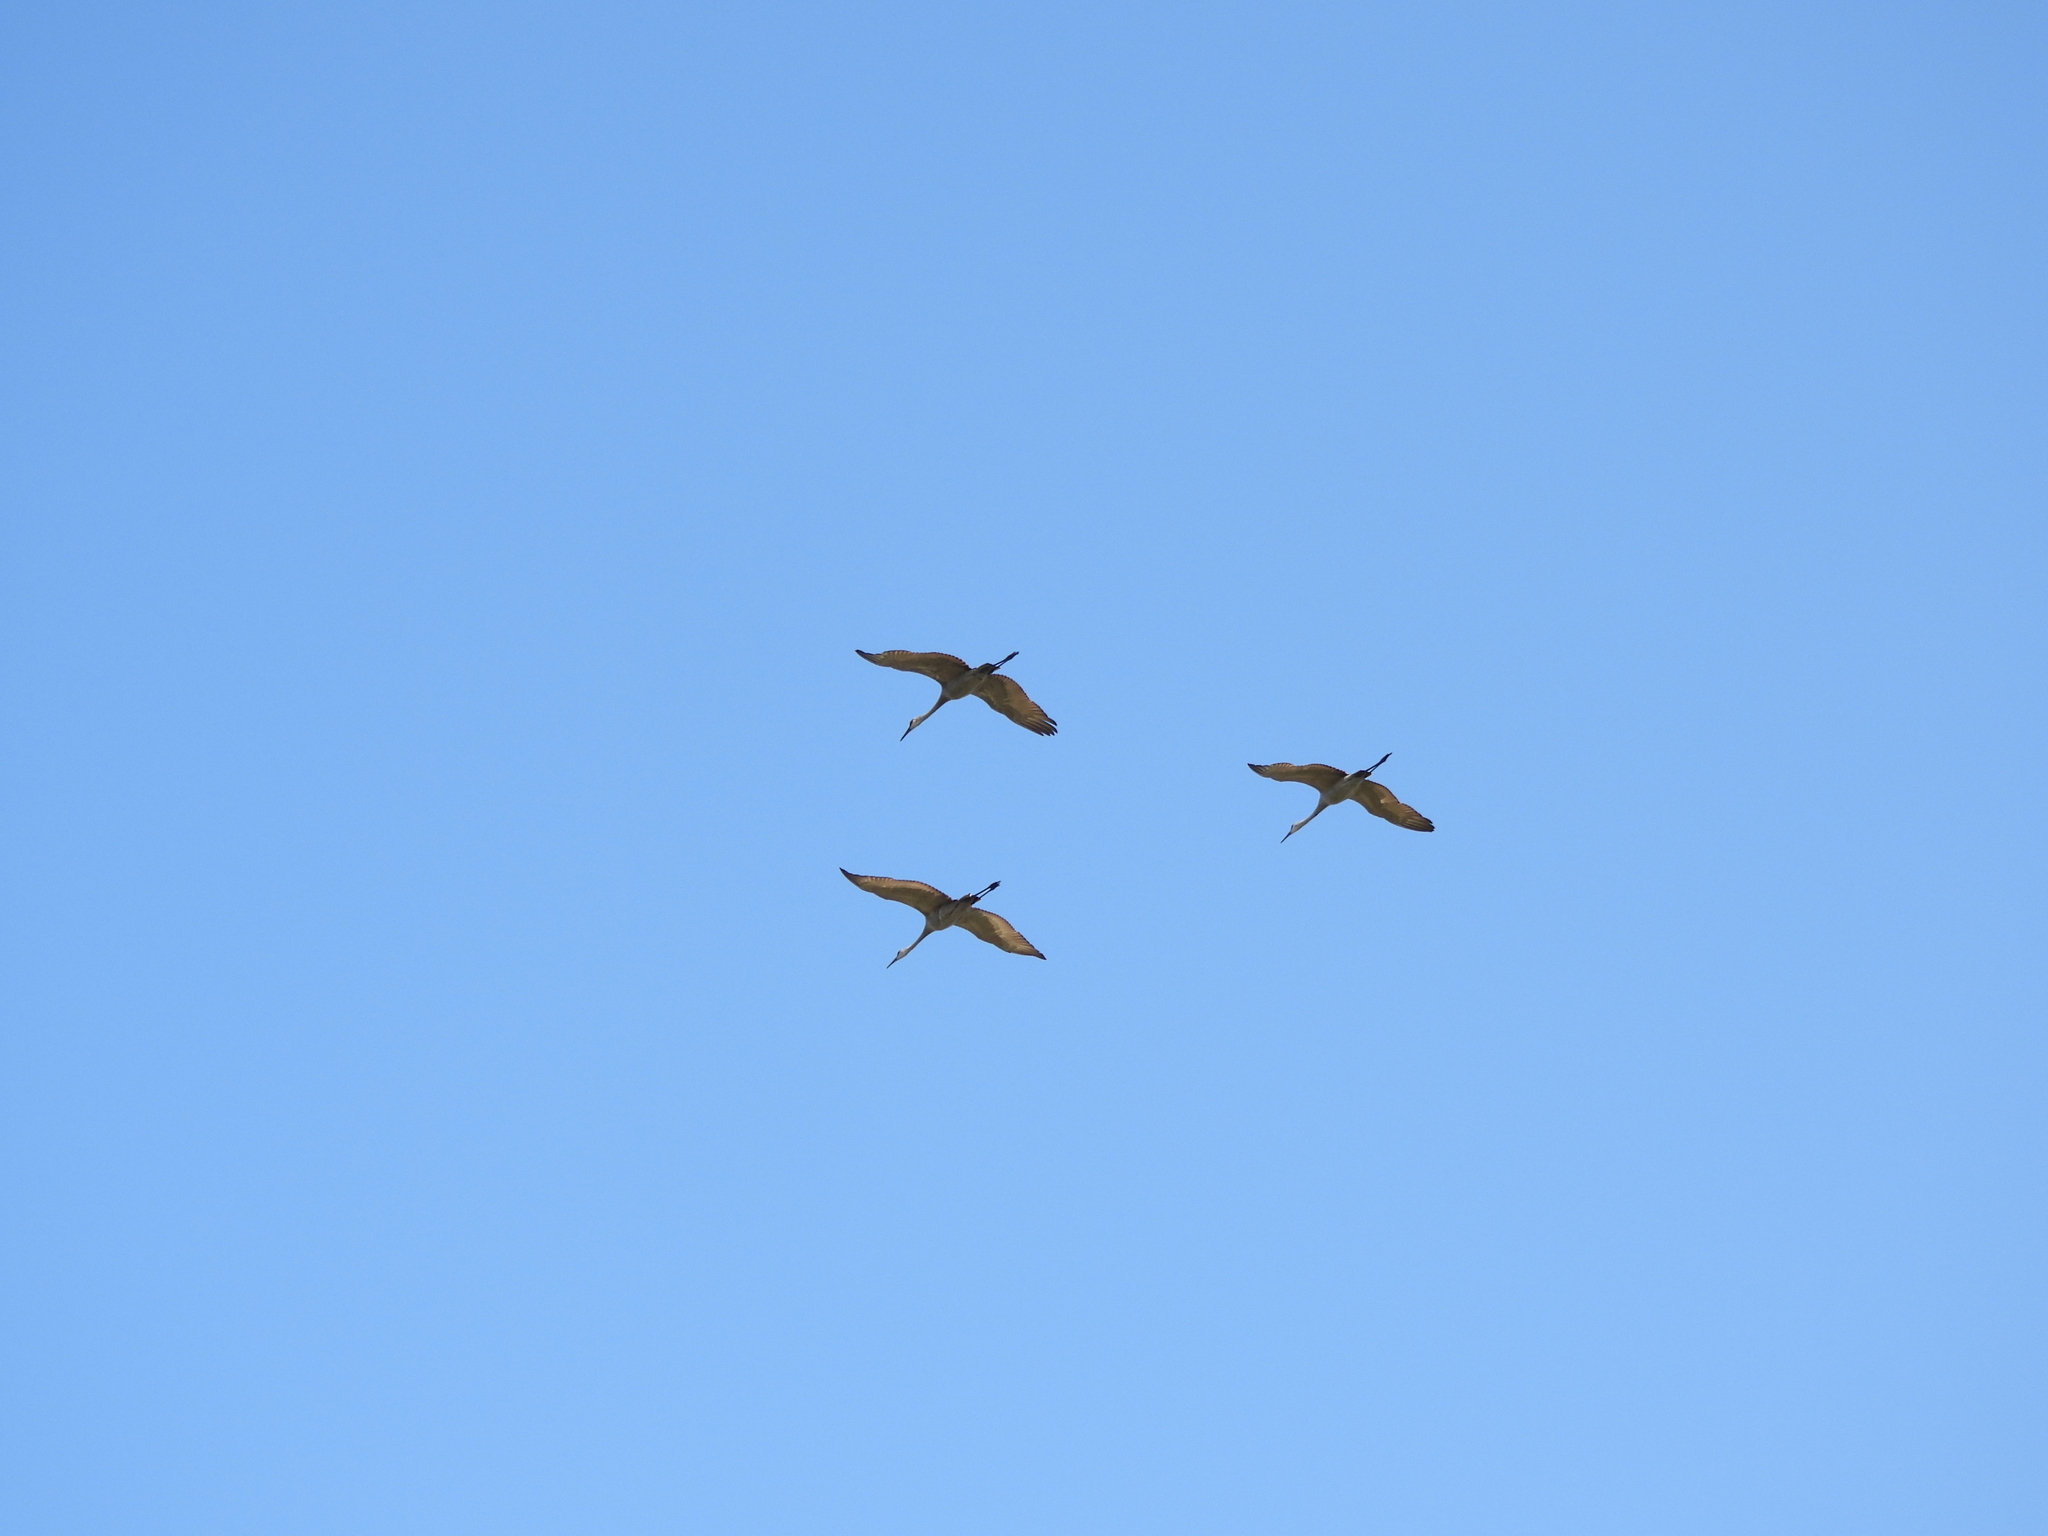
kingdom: Animalia
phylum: Chordata
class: Aves
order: Gruiformes
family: Gruidae
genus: Grus
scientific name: Grus canadensis
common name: Sandhill crane
